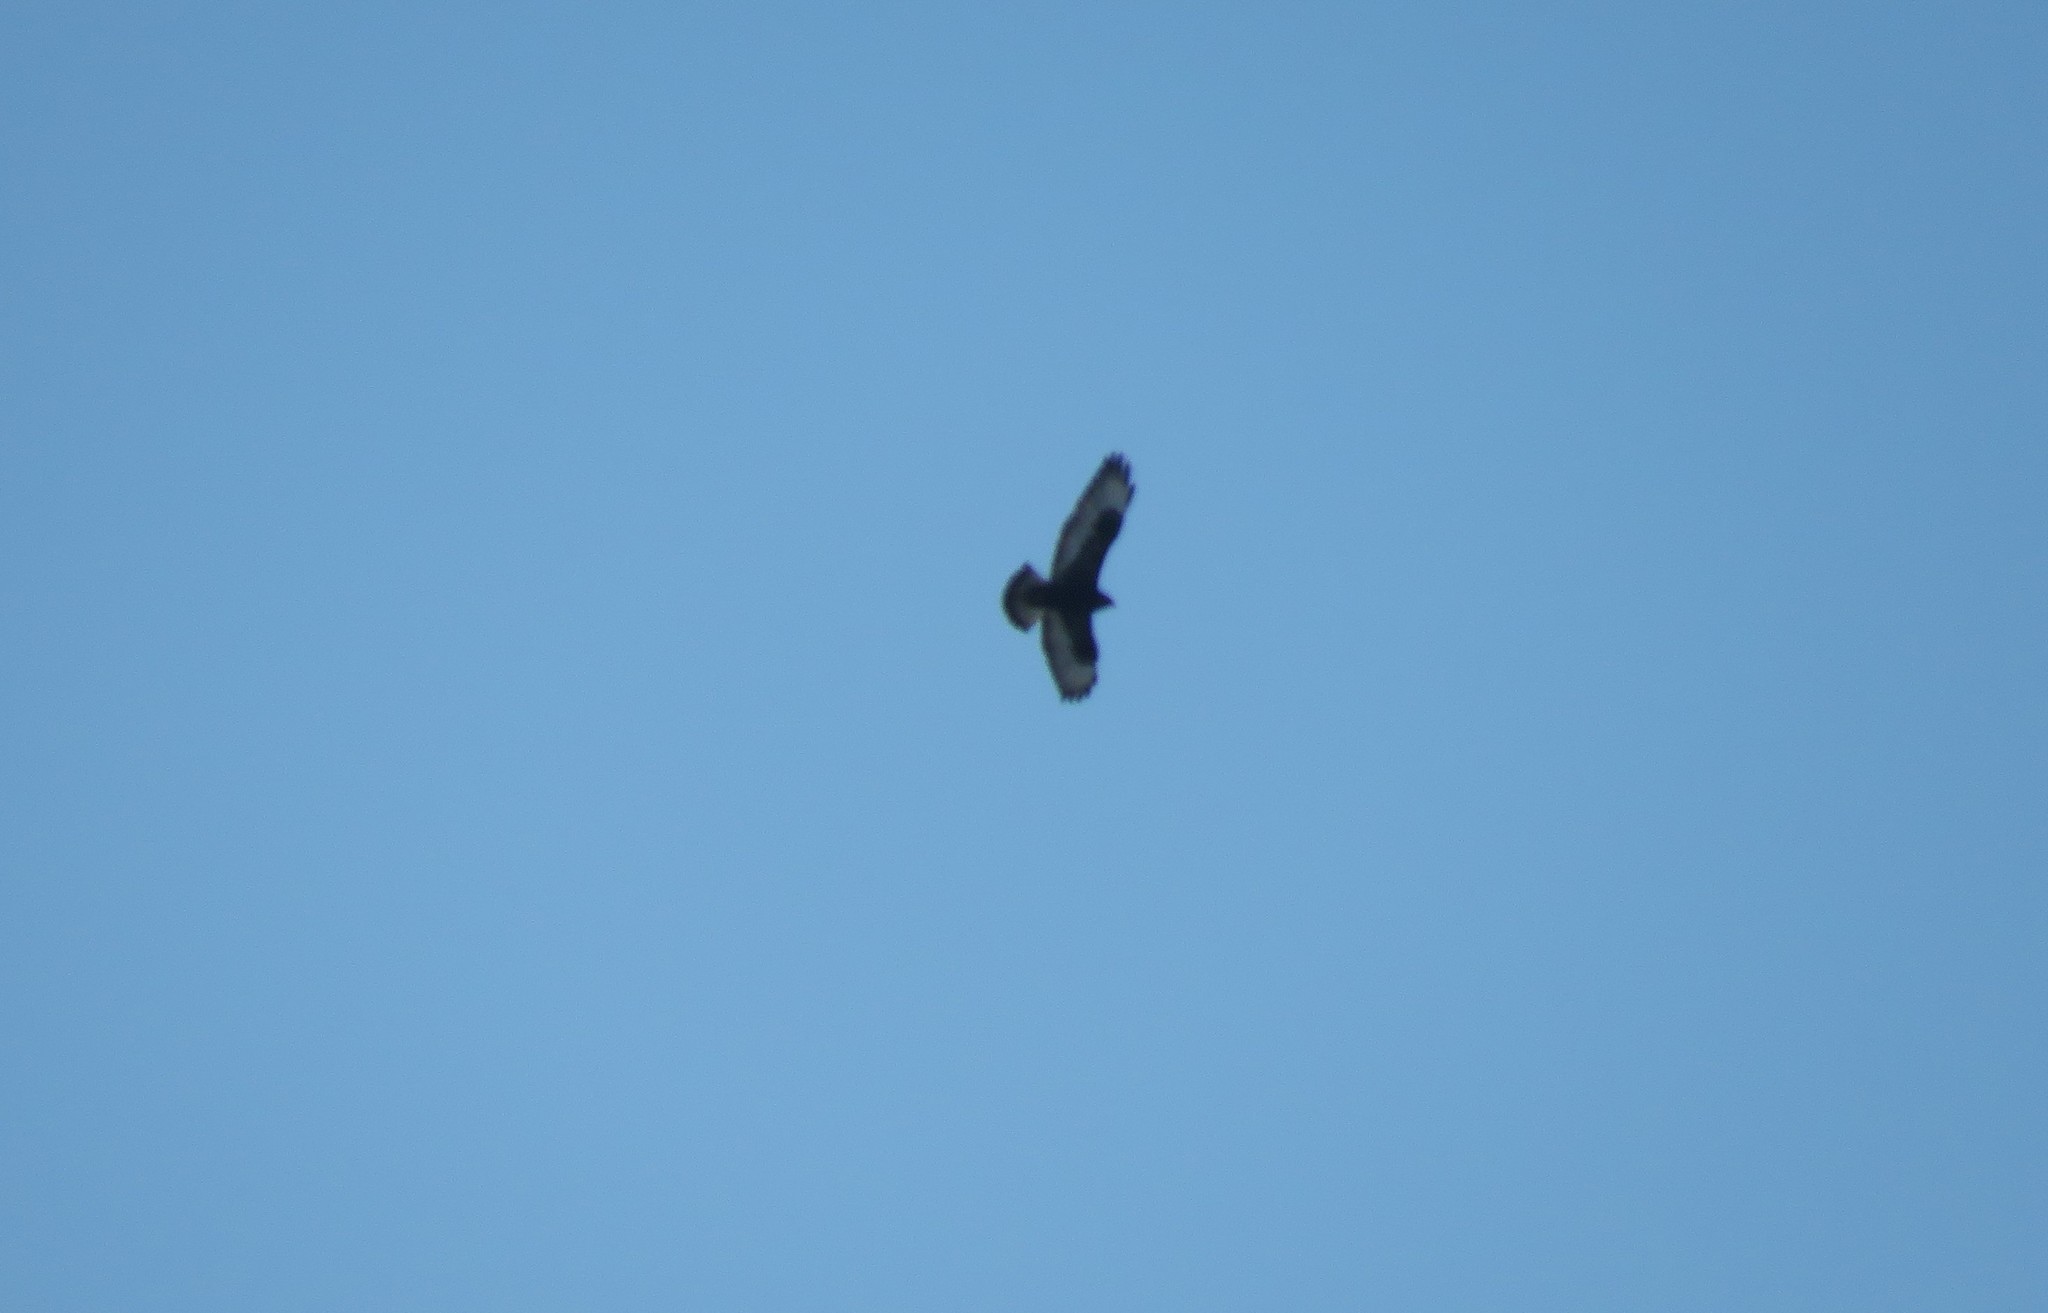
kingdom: Animalia
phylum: Chordata
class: Aves
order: Accipitriformes
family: Accipitridae
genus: Buteo
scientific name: Buteo lagopus
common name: Rough-legged buzzard
